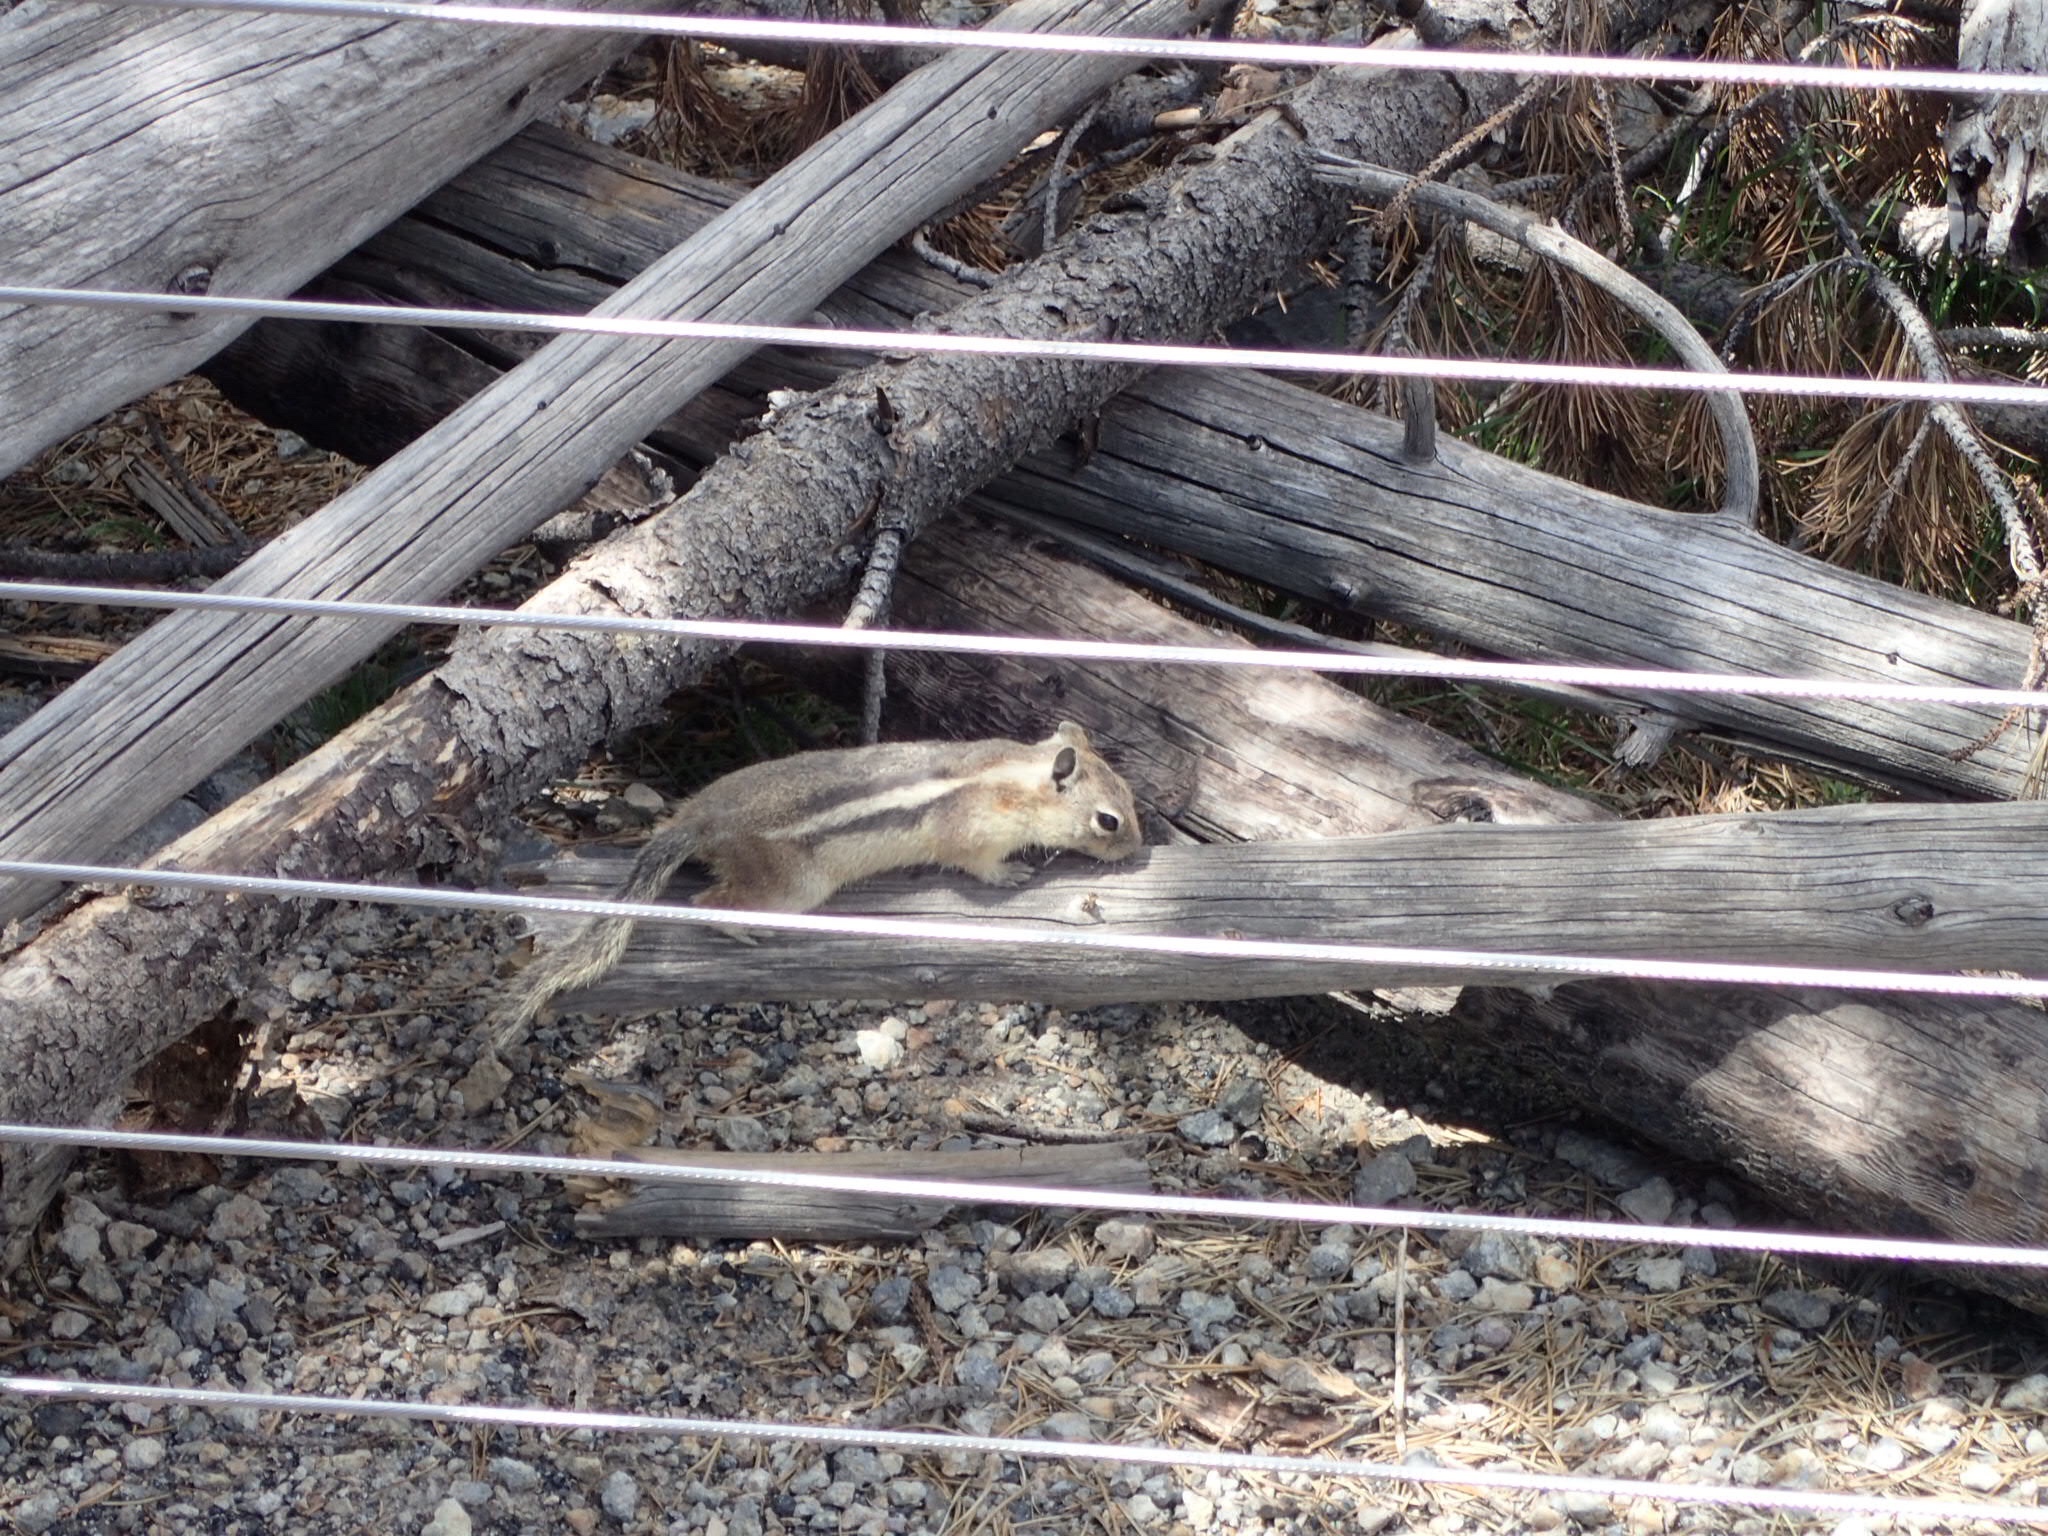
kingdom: Animalia
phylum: Chordata
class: Mammalia
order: Rodentia
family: Sciuridae
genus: Callospermophilus
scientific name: Callospermophilus lateralis
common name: Golden-mantled ground squirrel
